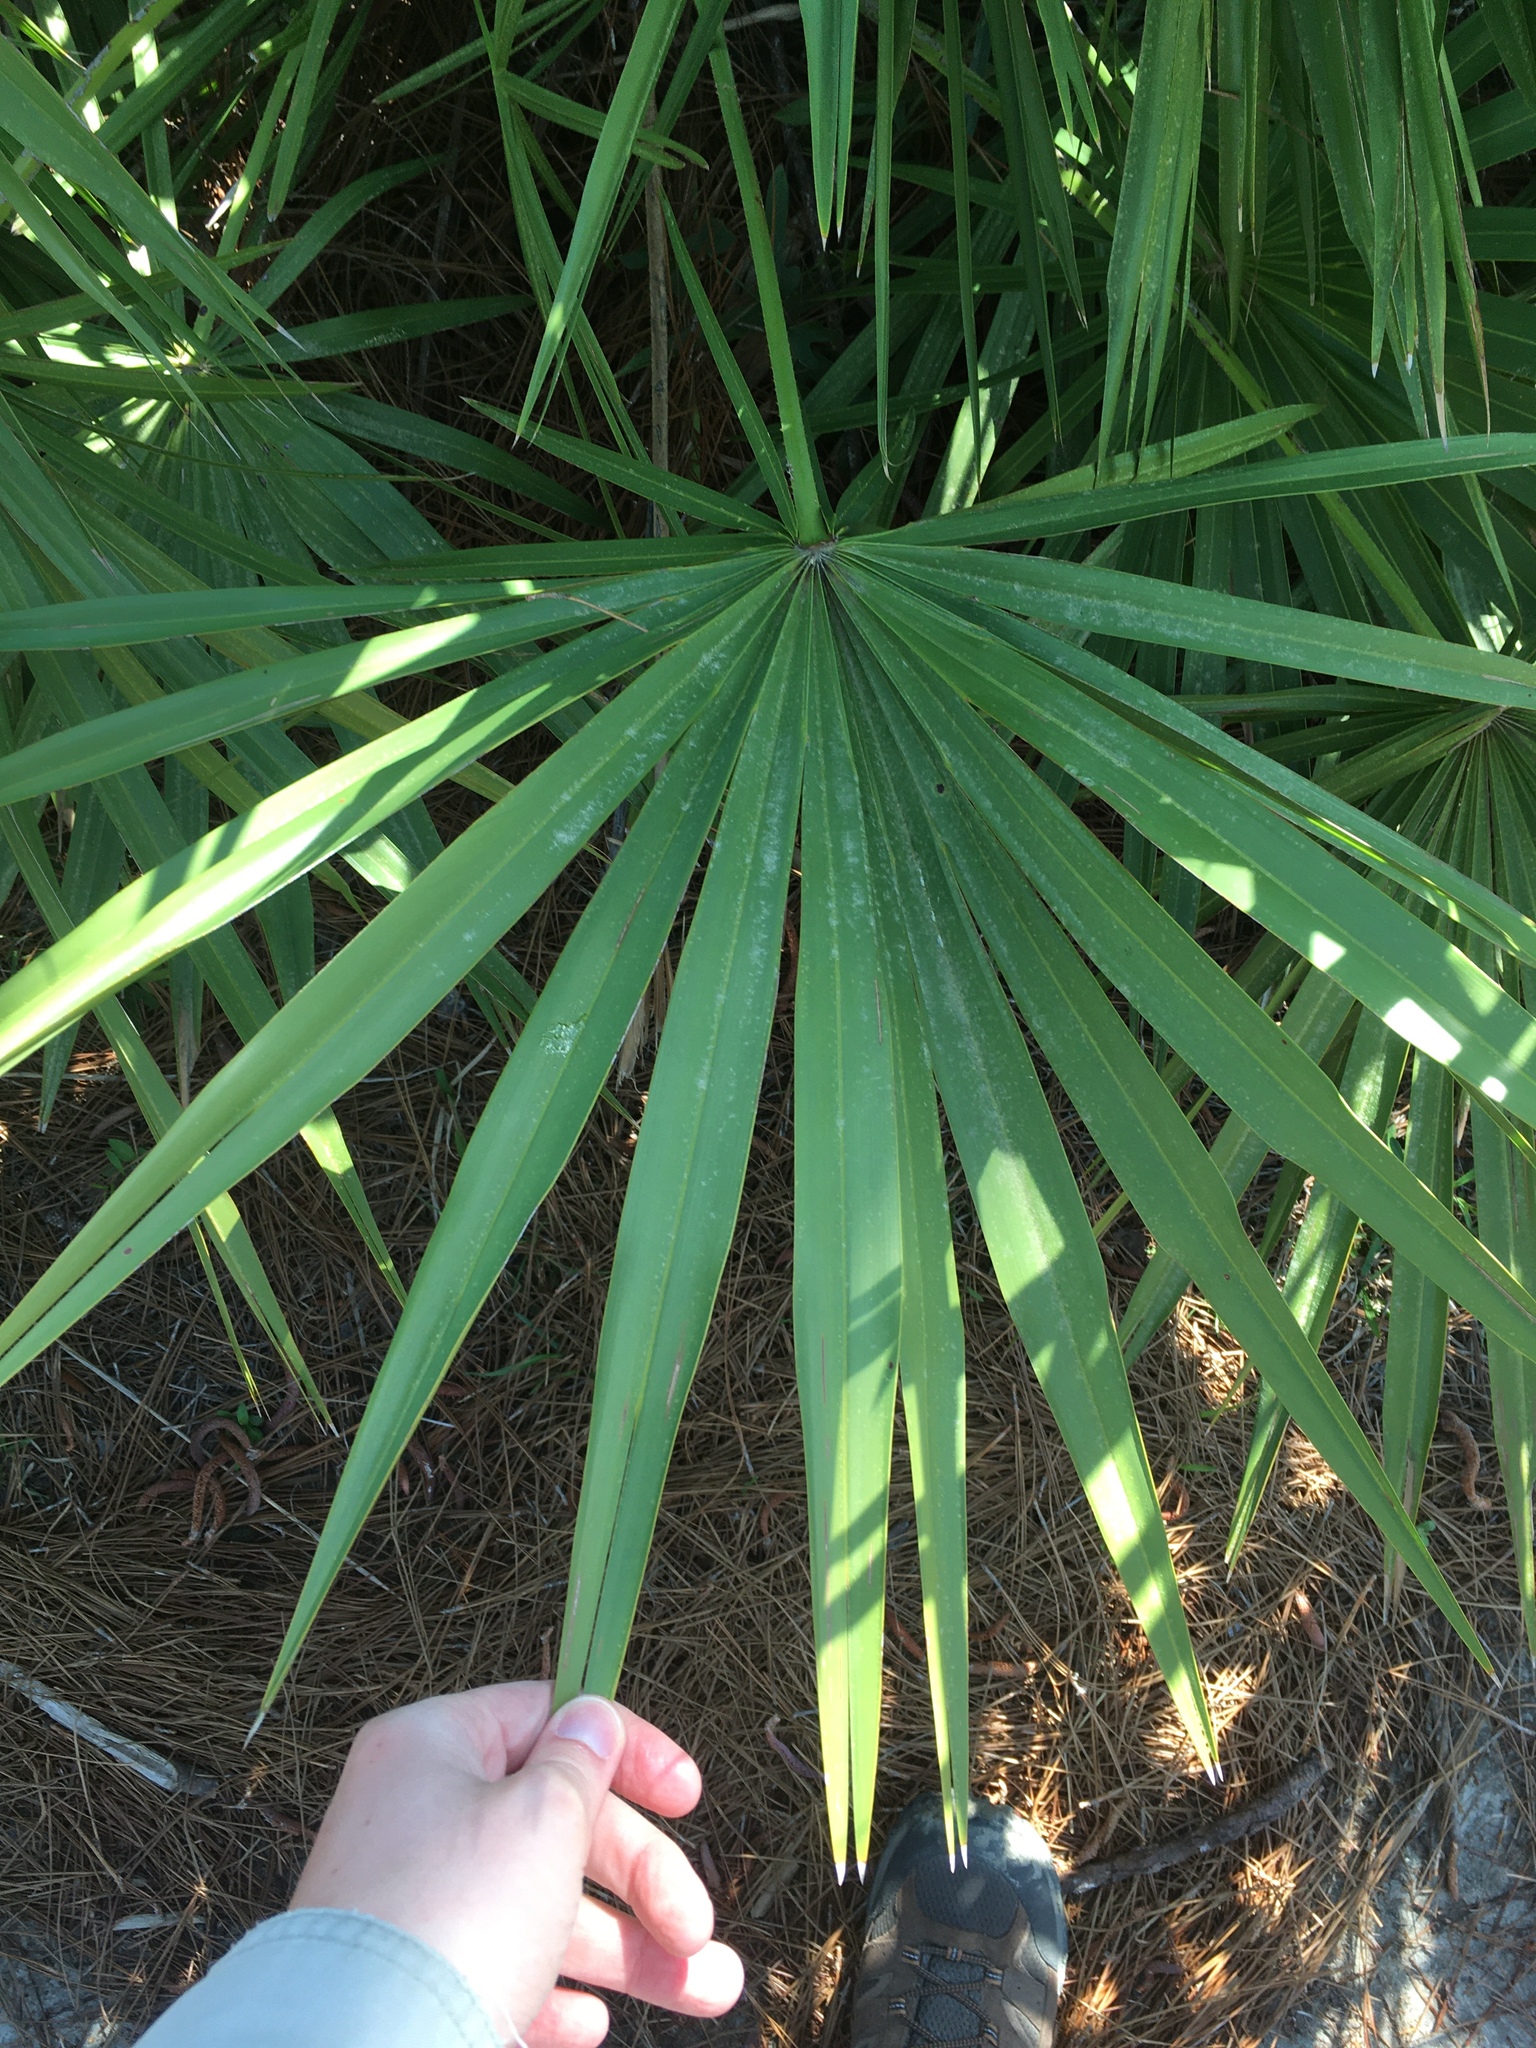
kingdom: Plantae
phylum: Tracheophyta
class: Liliopsida
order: Arecales
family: Arecaceae
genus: Serenoa
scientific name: Serenoa repens
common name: Saw-palmetto
